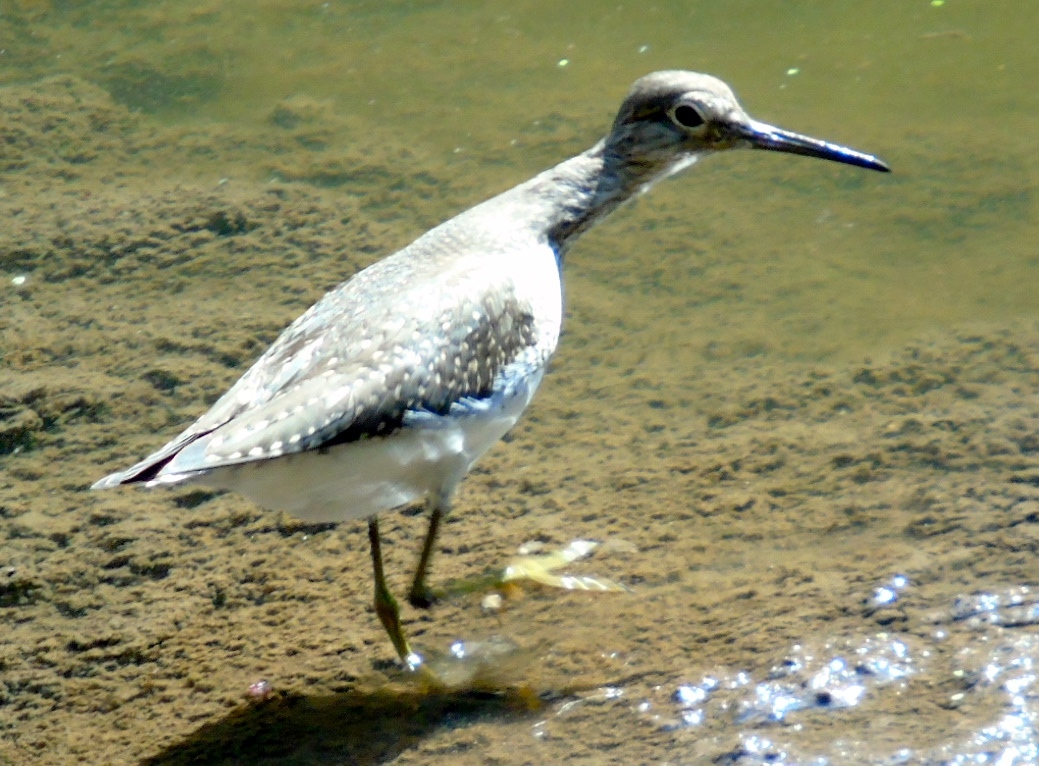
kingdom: Animalia
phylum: Chordata
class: Aves
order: Charadriiformes
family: Scolopacidae
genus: Tringa
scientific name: Tringa solitaria
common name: Solitary sandpiper
